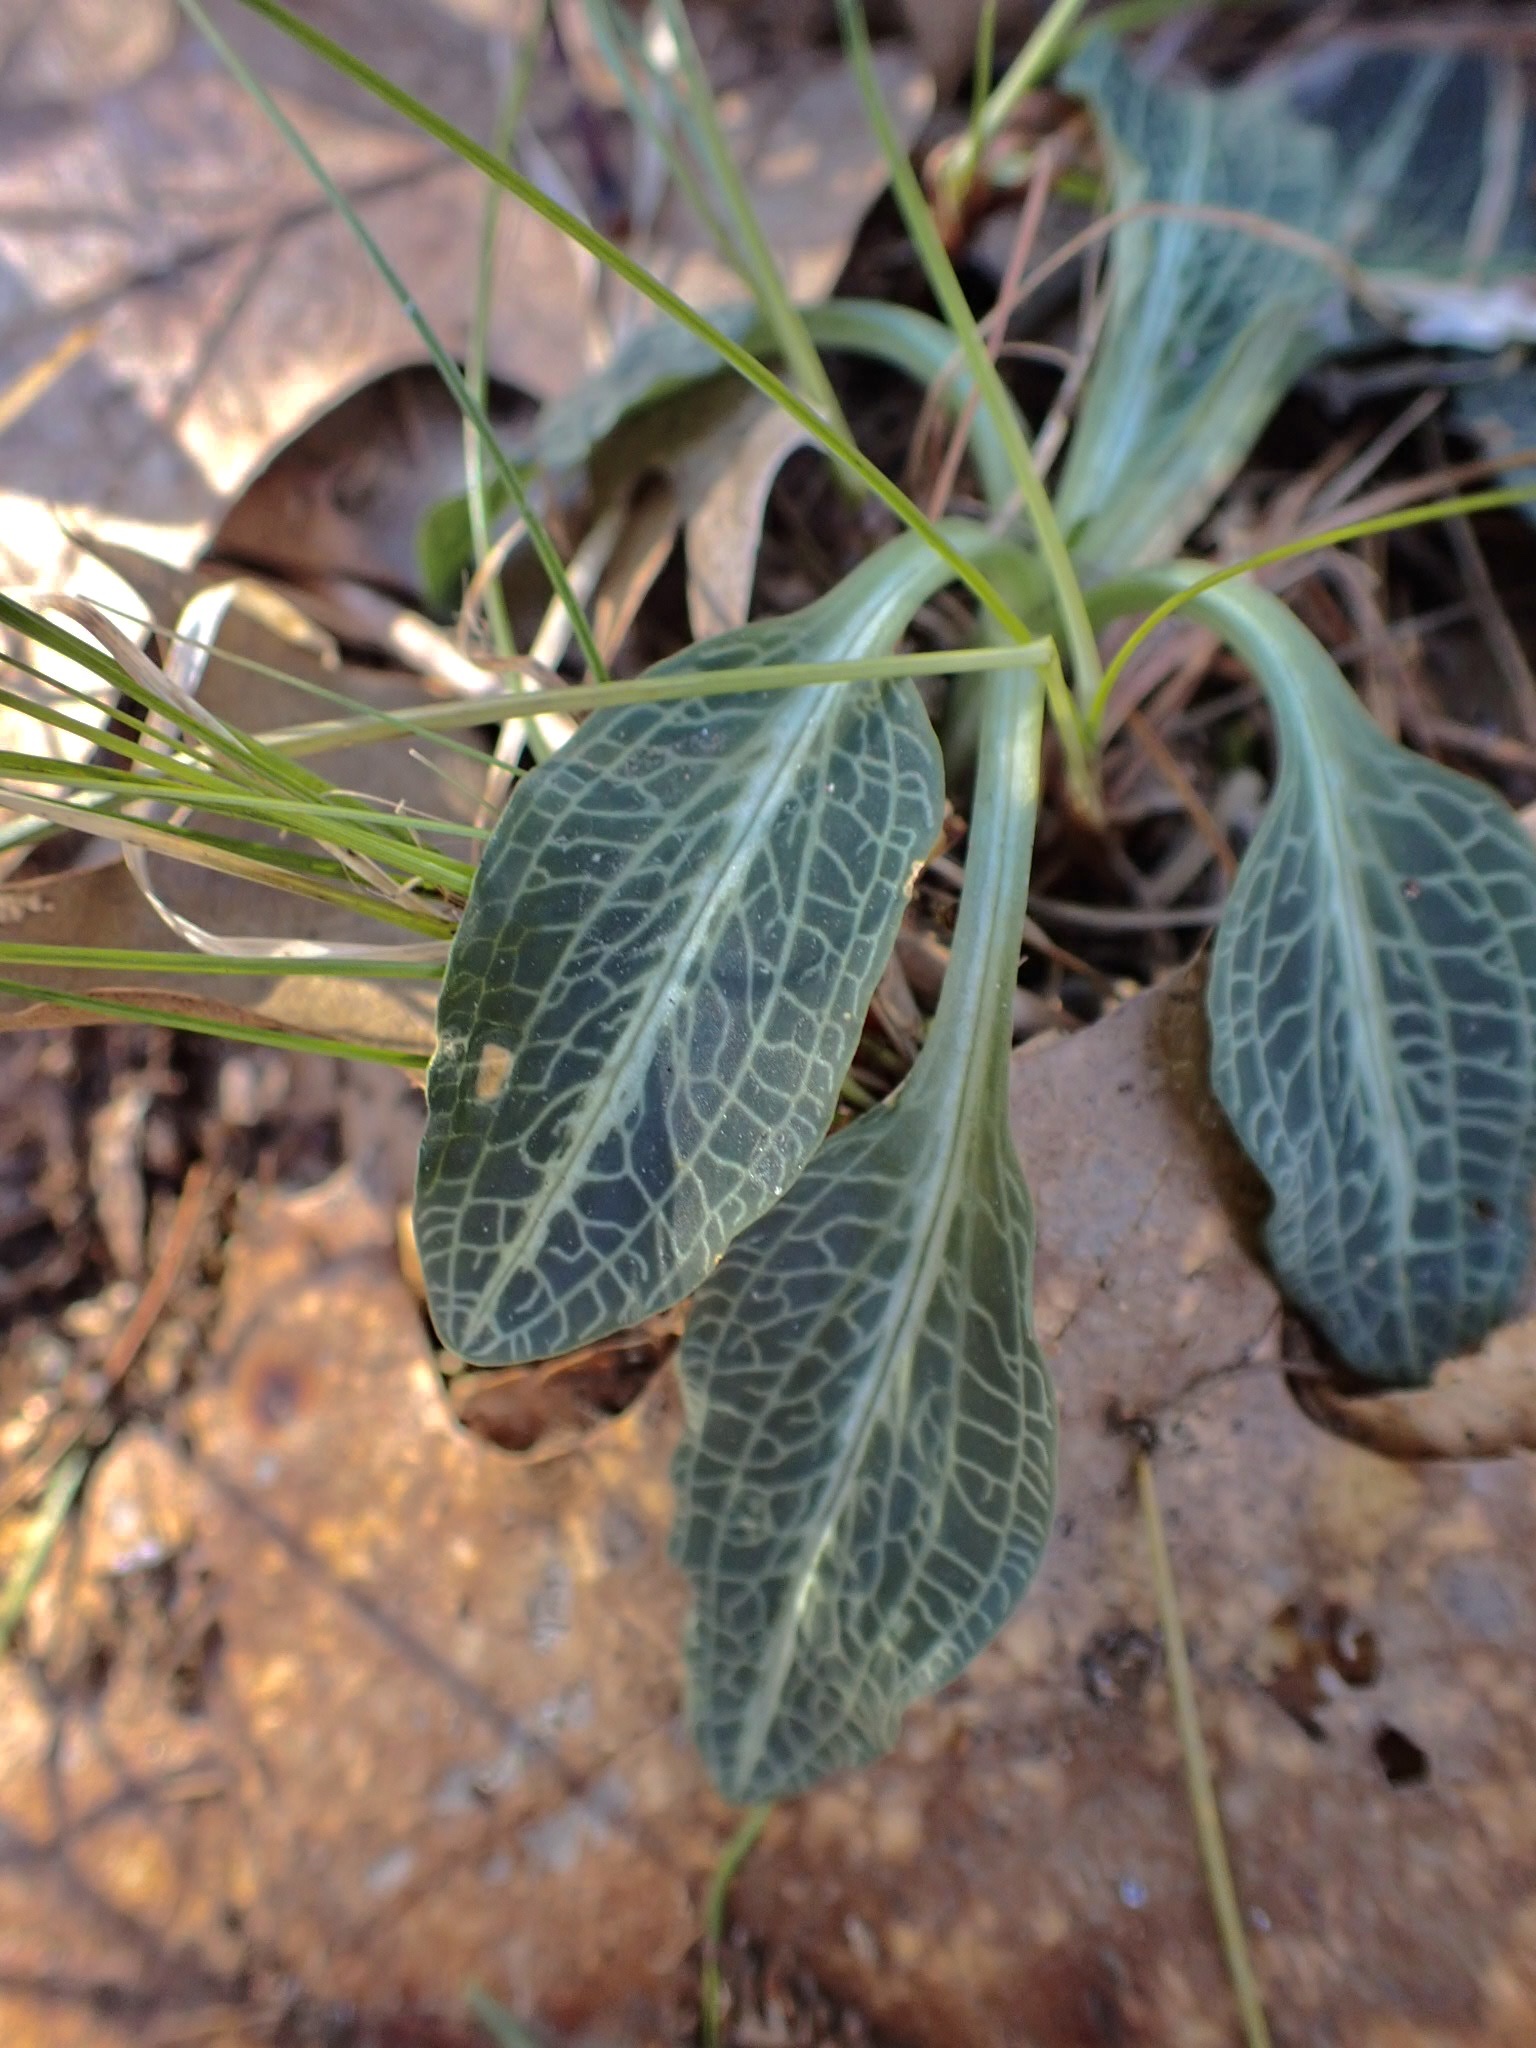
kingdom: Plantae
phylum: Tracheophyta
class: Liliopsida
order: Asparagales
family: Orchidaceae
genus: Goodyera
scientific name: Goodyera pubescens
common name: Downy rattlesnake-plantain
